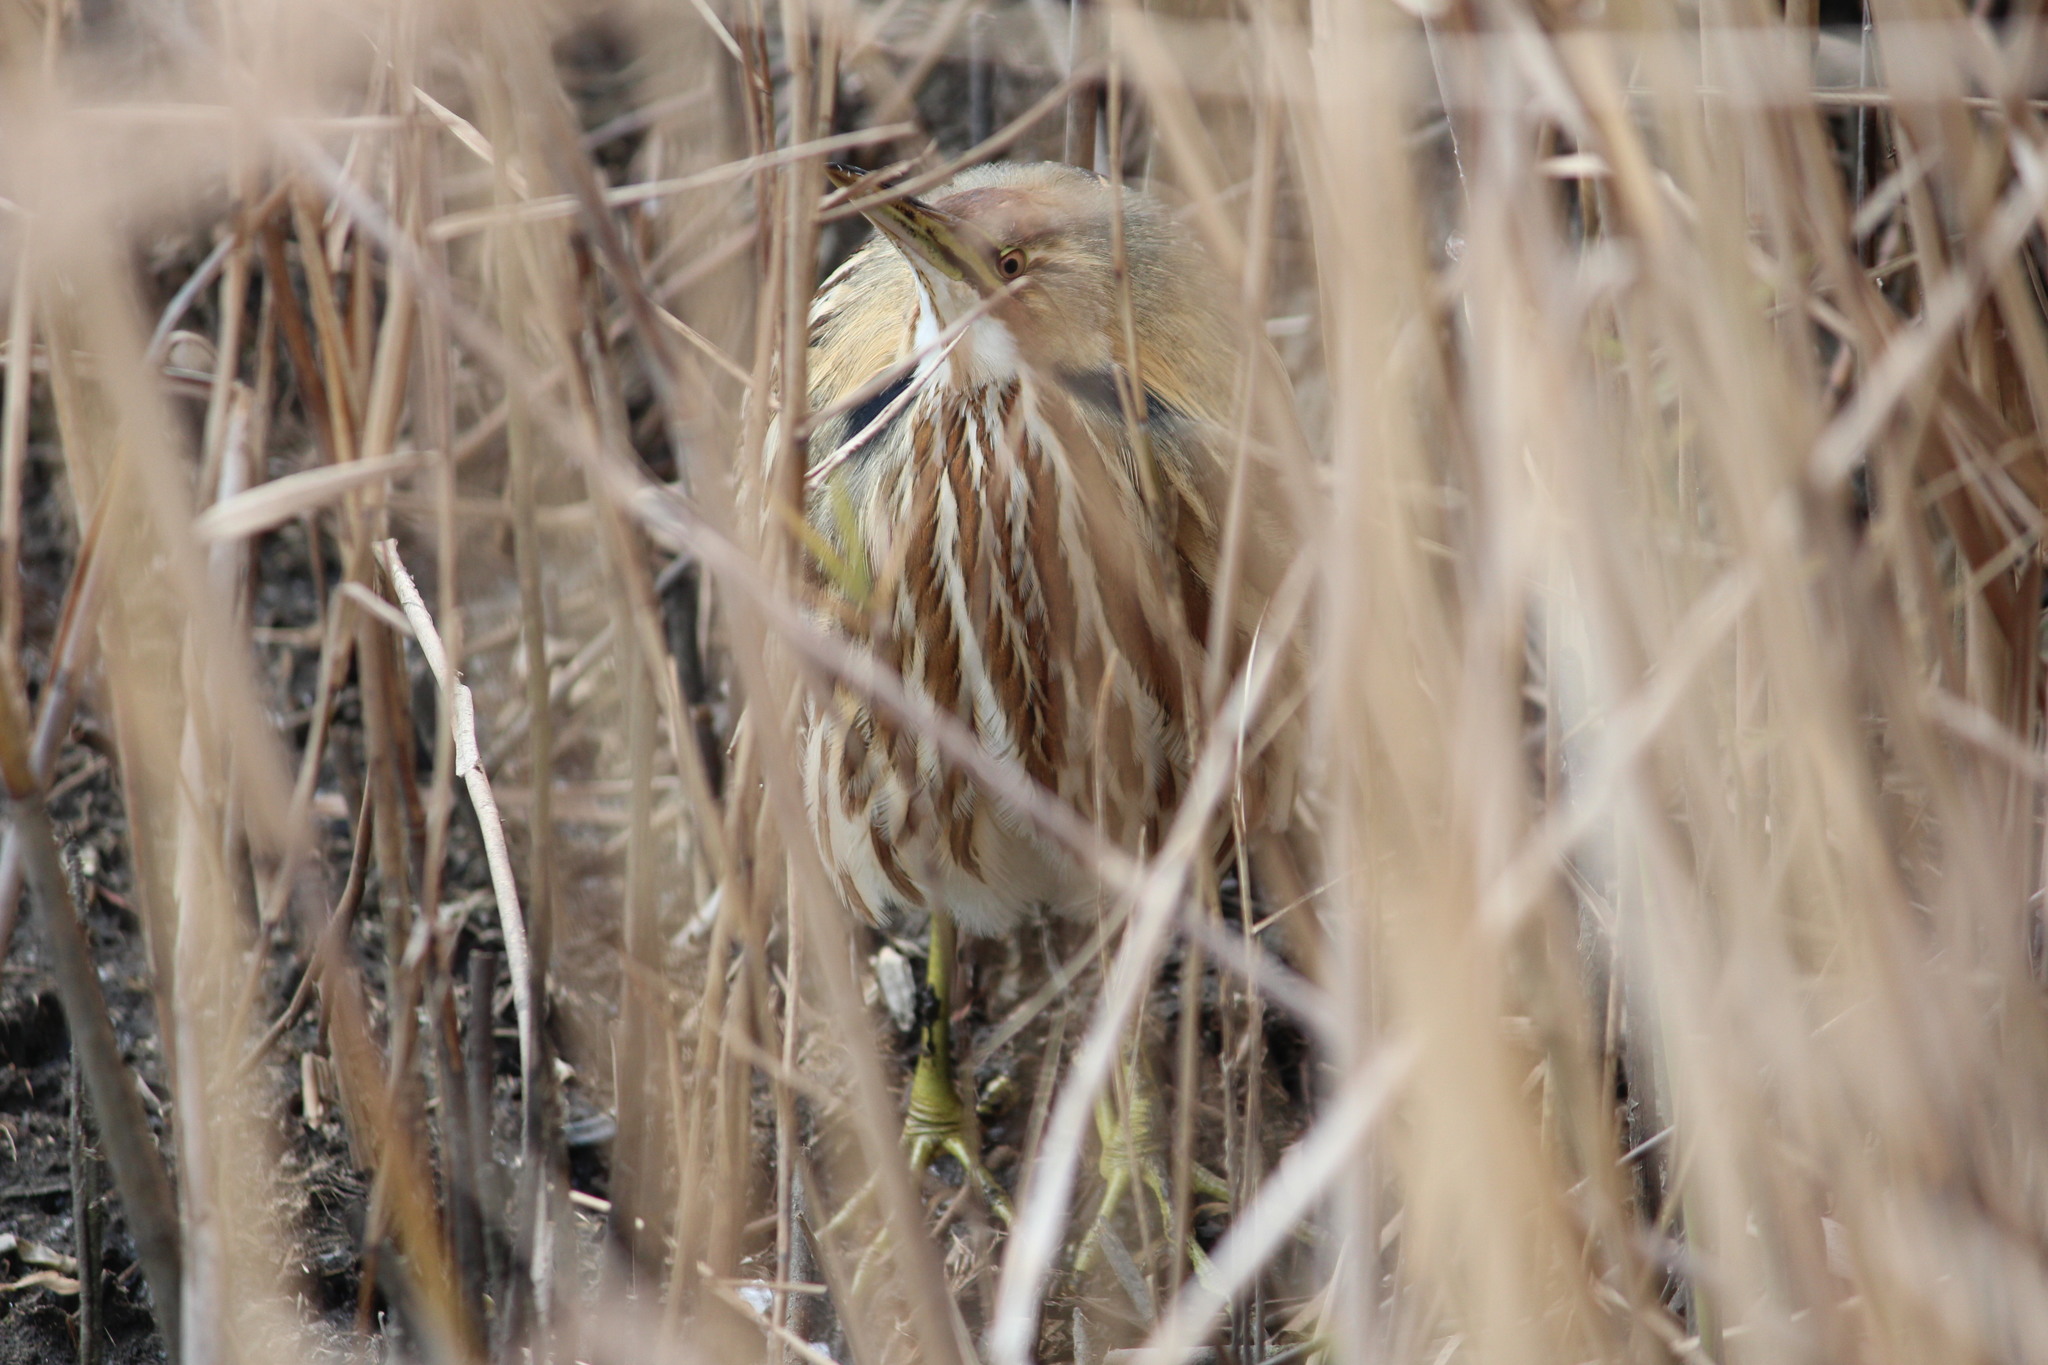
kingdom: Animalia
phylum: Chordata
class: Aves
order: Pelecaniformes
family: Ardeidae
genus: Botaurus
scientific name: Botaurus lentiginosus
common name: American bittern
